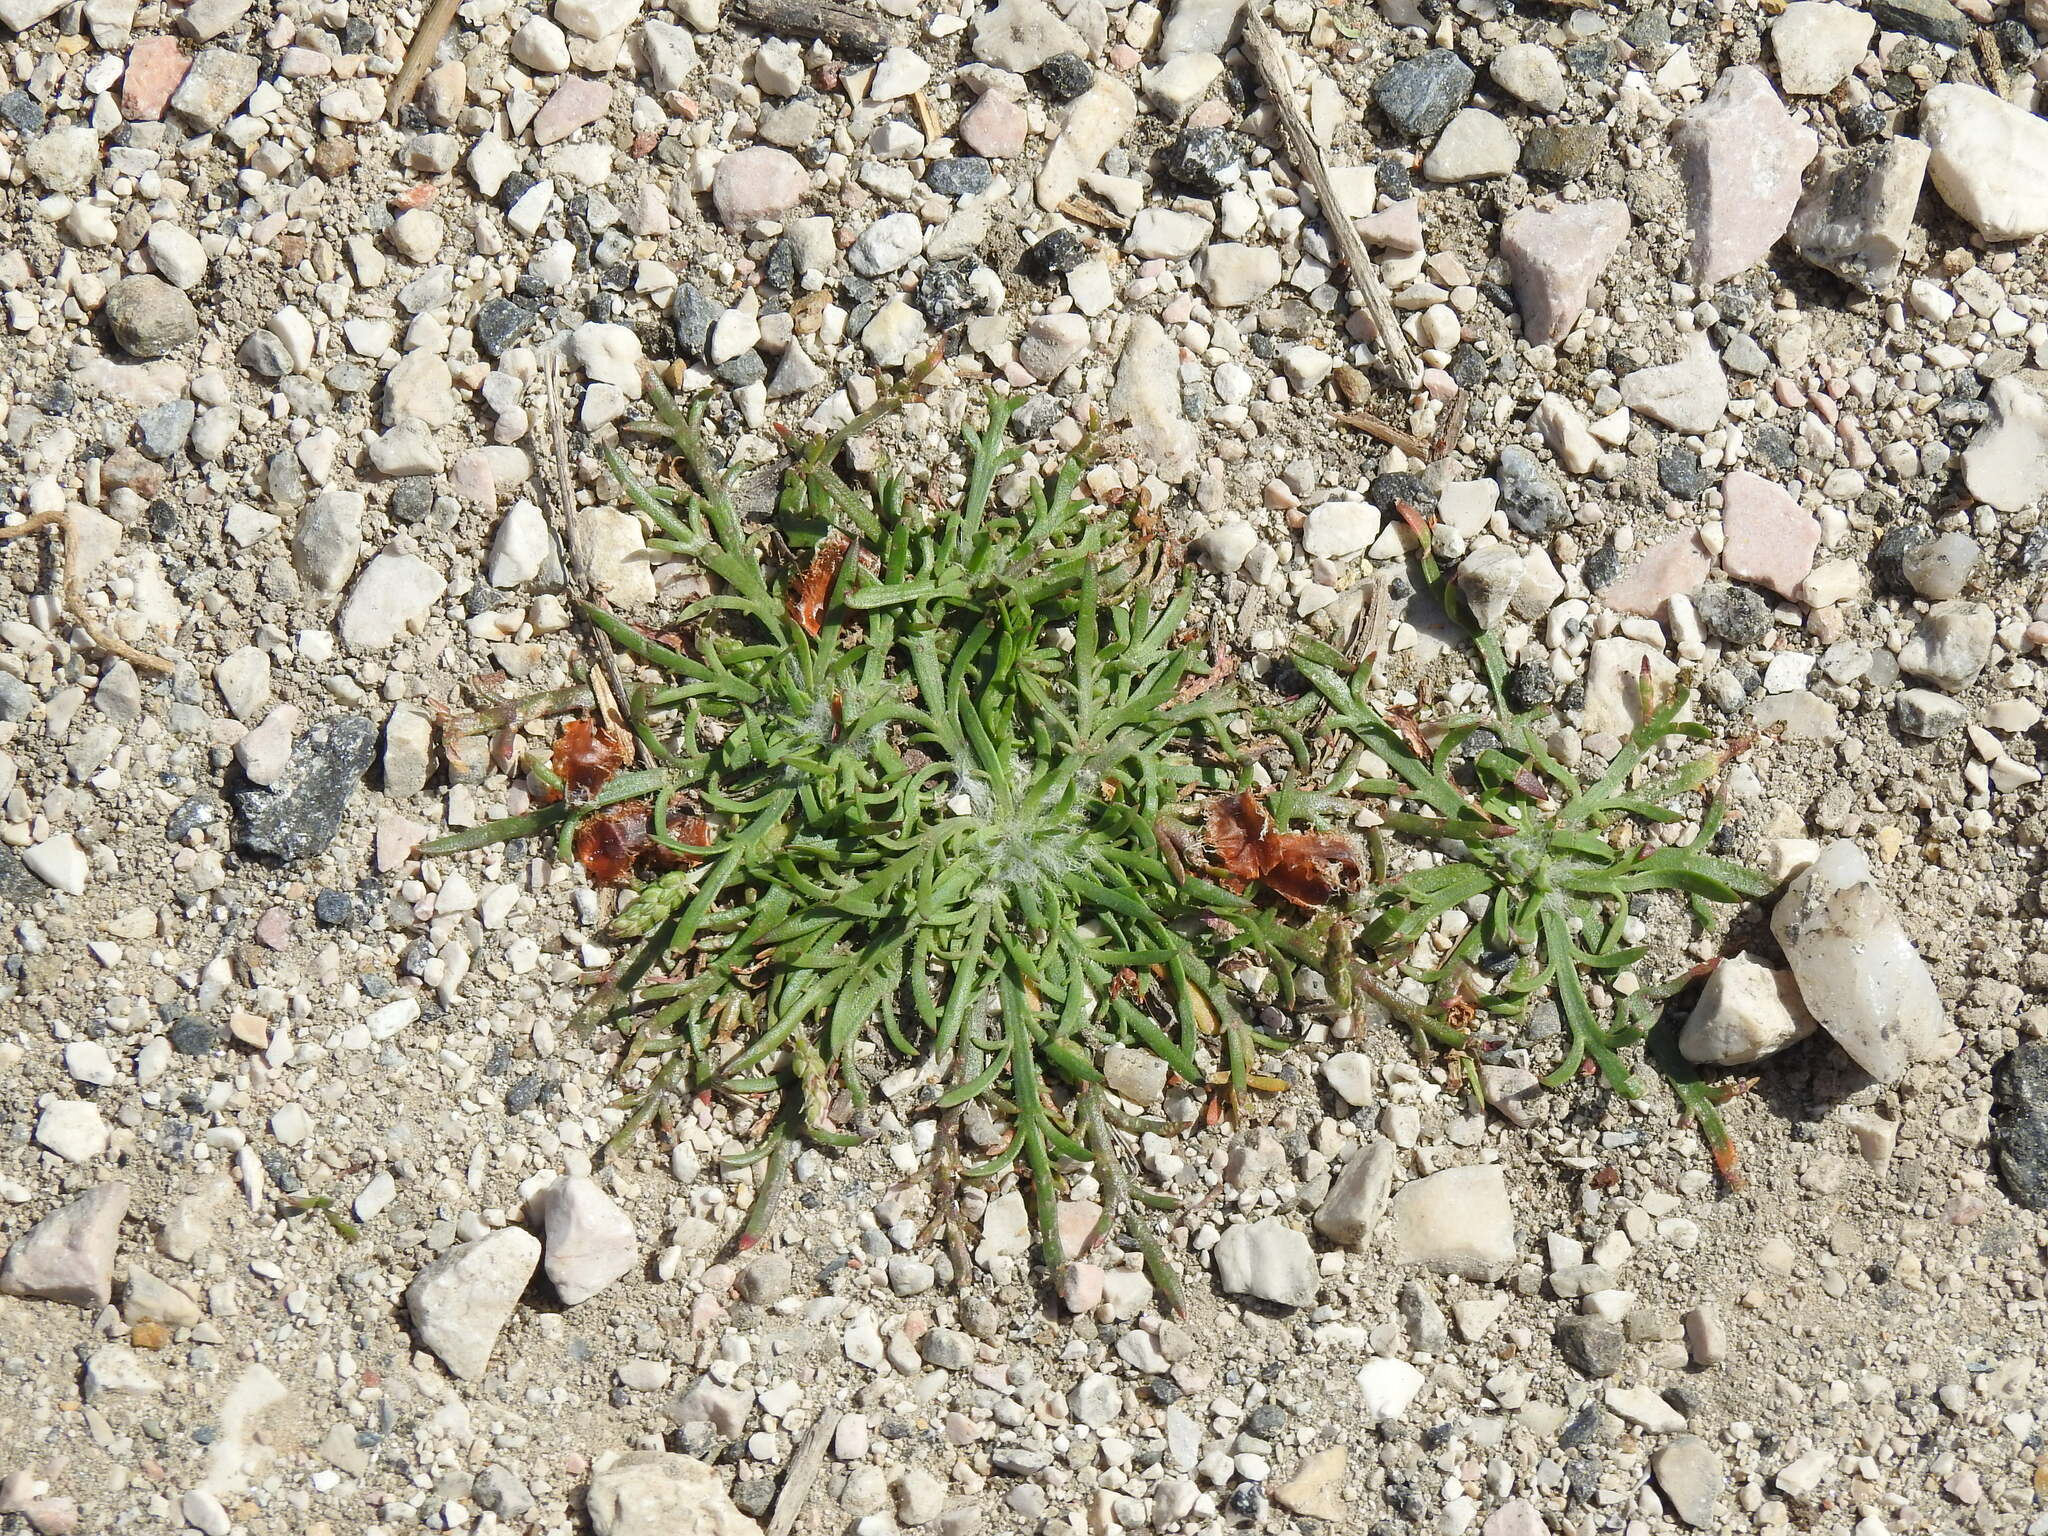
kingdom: Plantae
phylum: Tracheophyta
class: Magnoliopsida
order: Lamiales
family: Plantaginaceae
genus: Plantago
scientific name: Plantago coronopus
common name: Buck's-horn plantain
